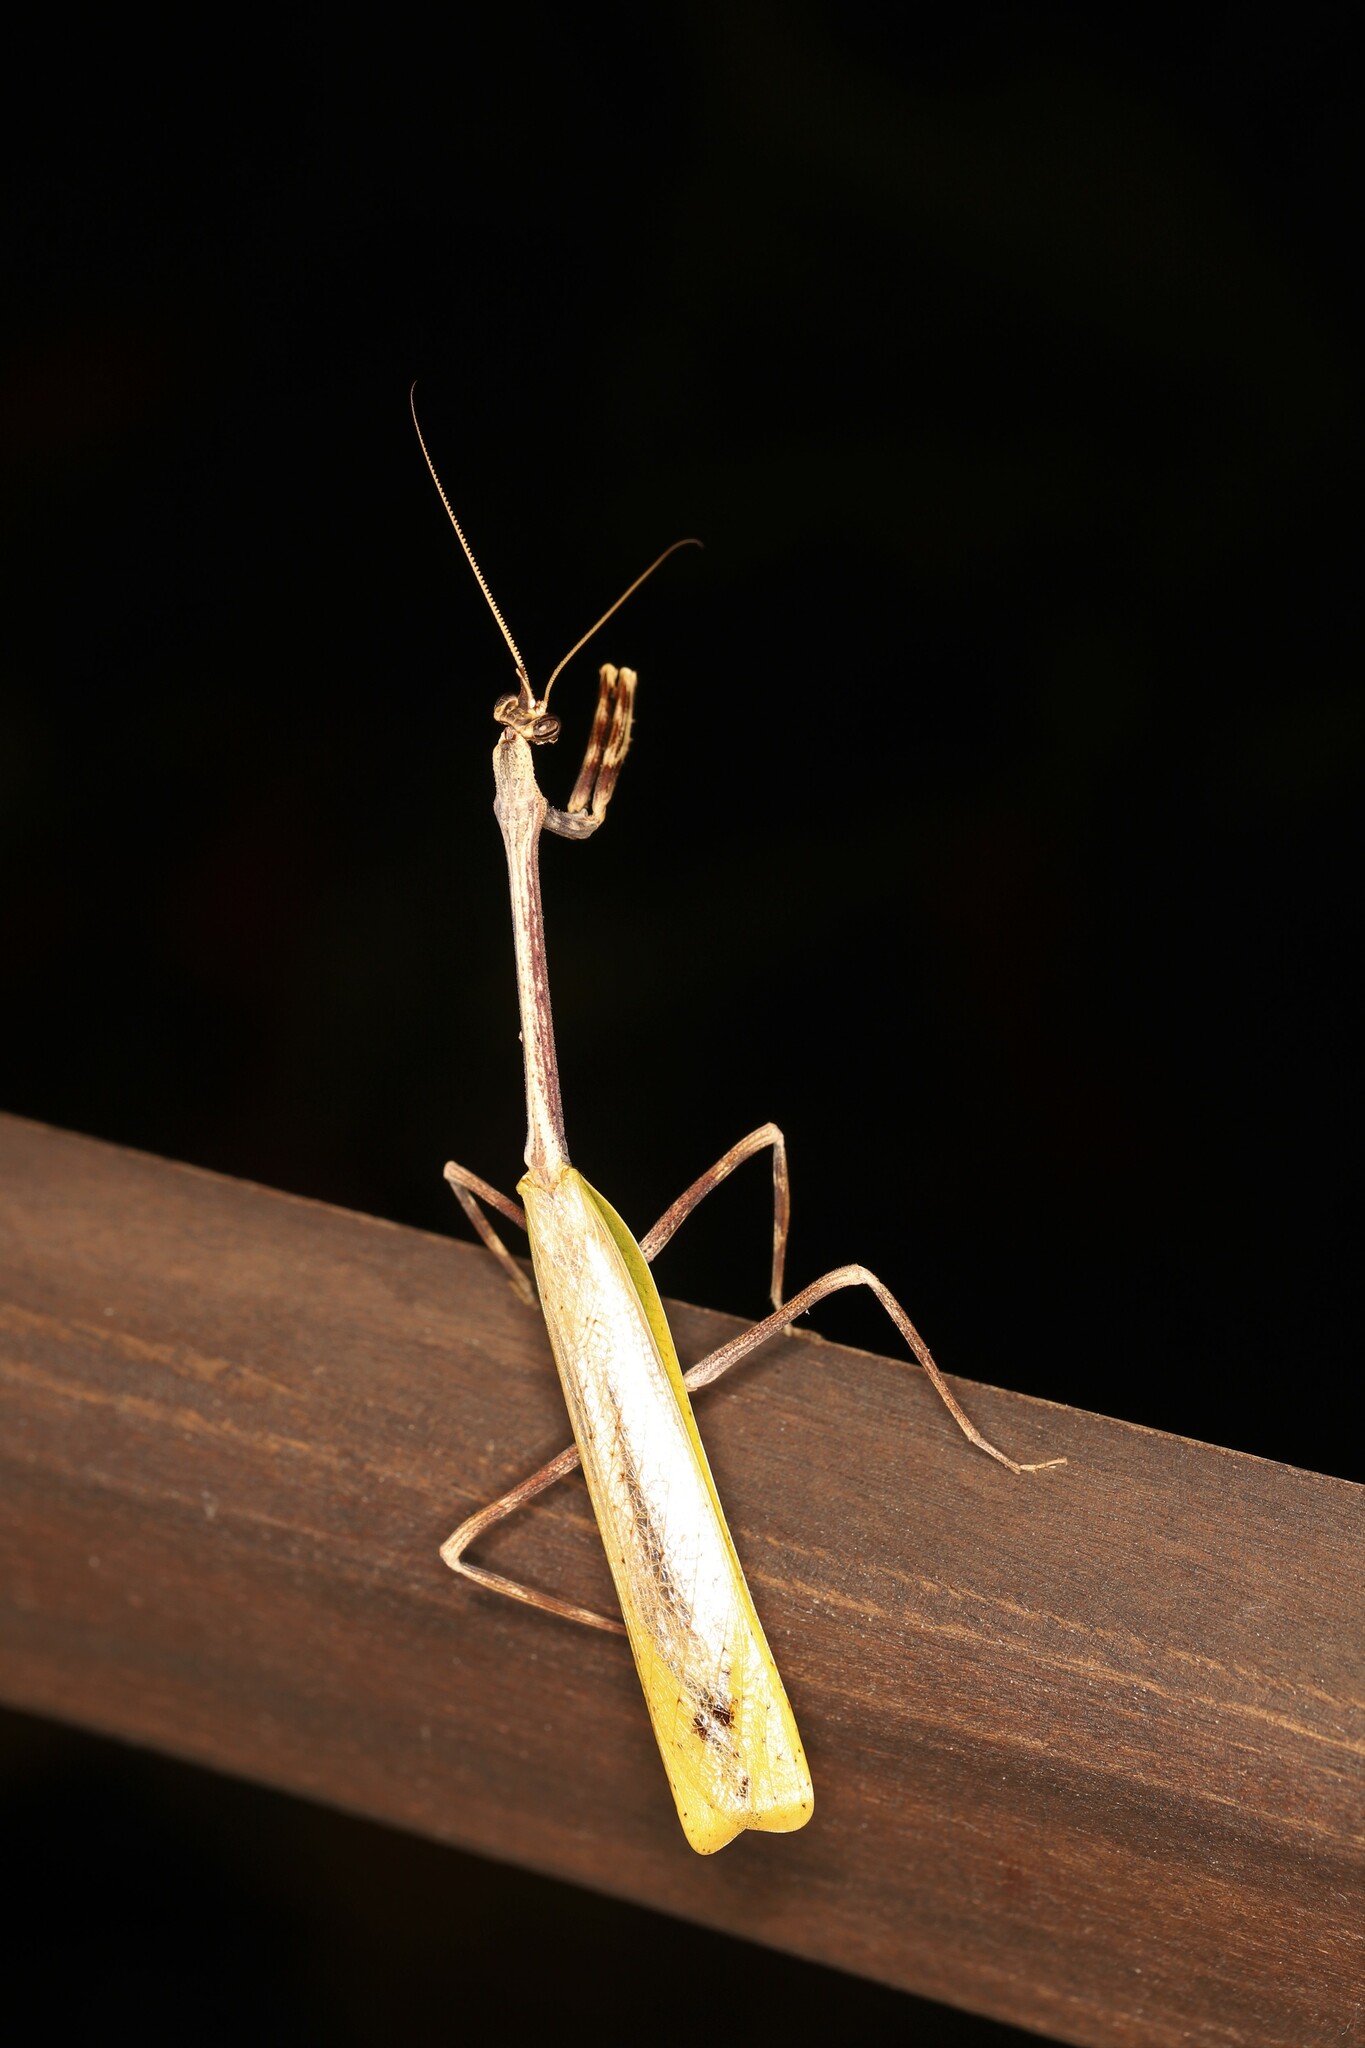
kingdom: Animalia
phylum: Arthropoda
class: Insecta
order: Mantodea
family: Mantidae
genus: Pseudovates
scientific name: Pseudovates chlorophaea
